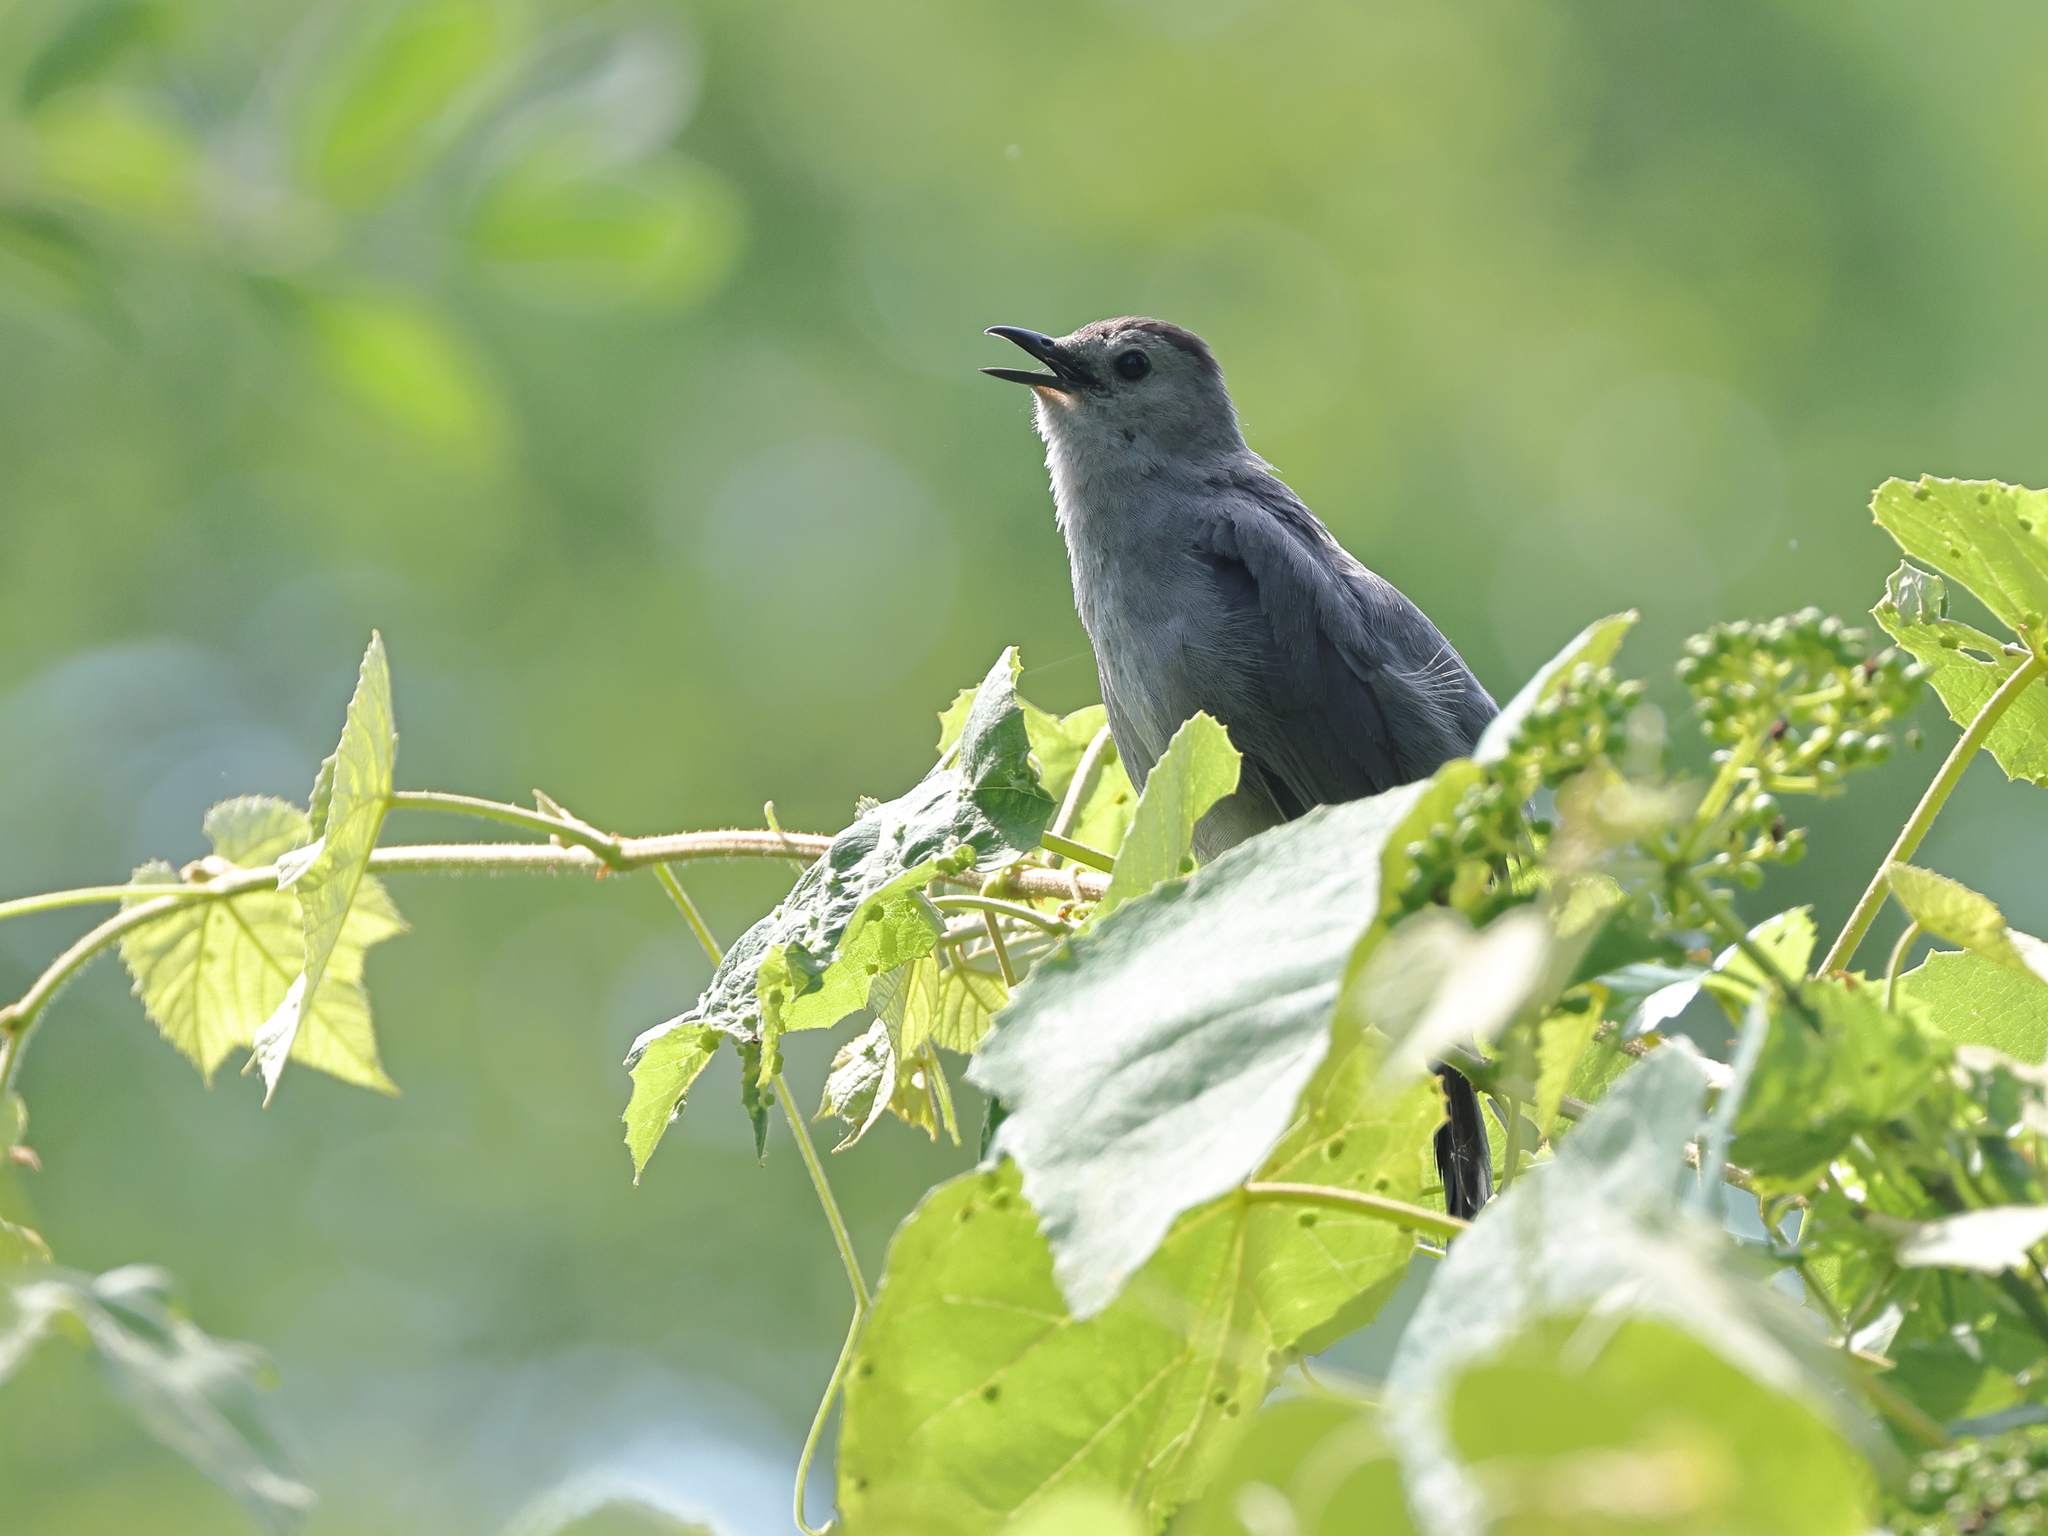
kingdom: Animalia
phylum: Chordata
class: Aves
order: Passeriformes
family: Mimidae
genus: Dumetella
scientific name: Dumetella carolinensis
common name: Gray catbird
